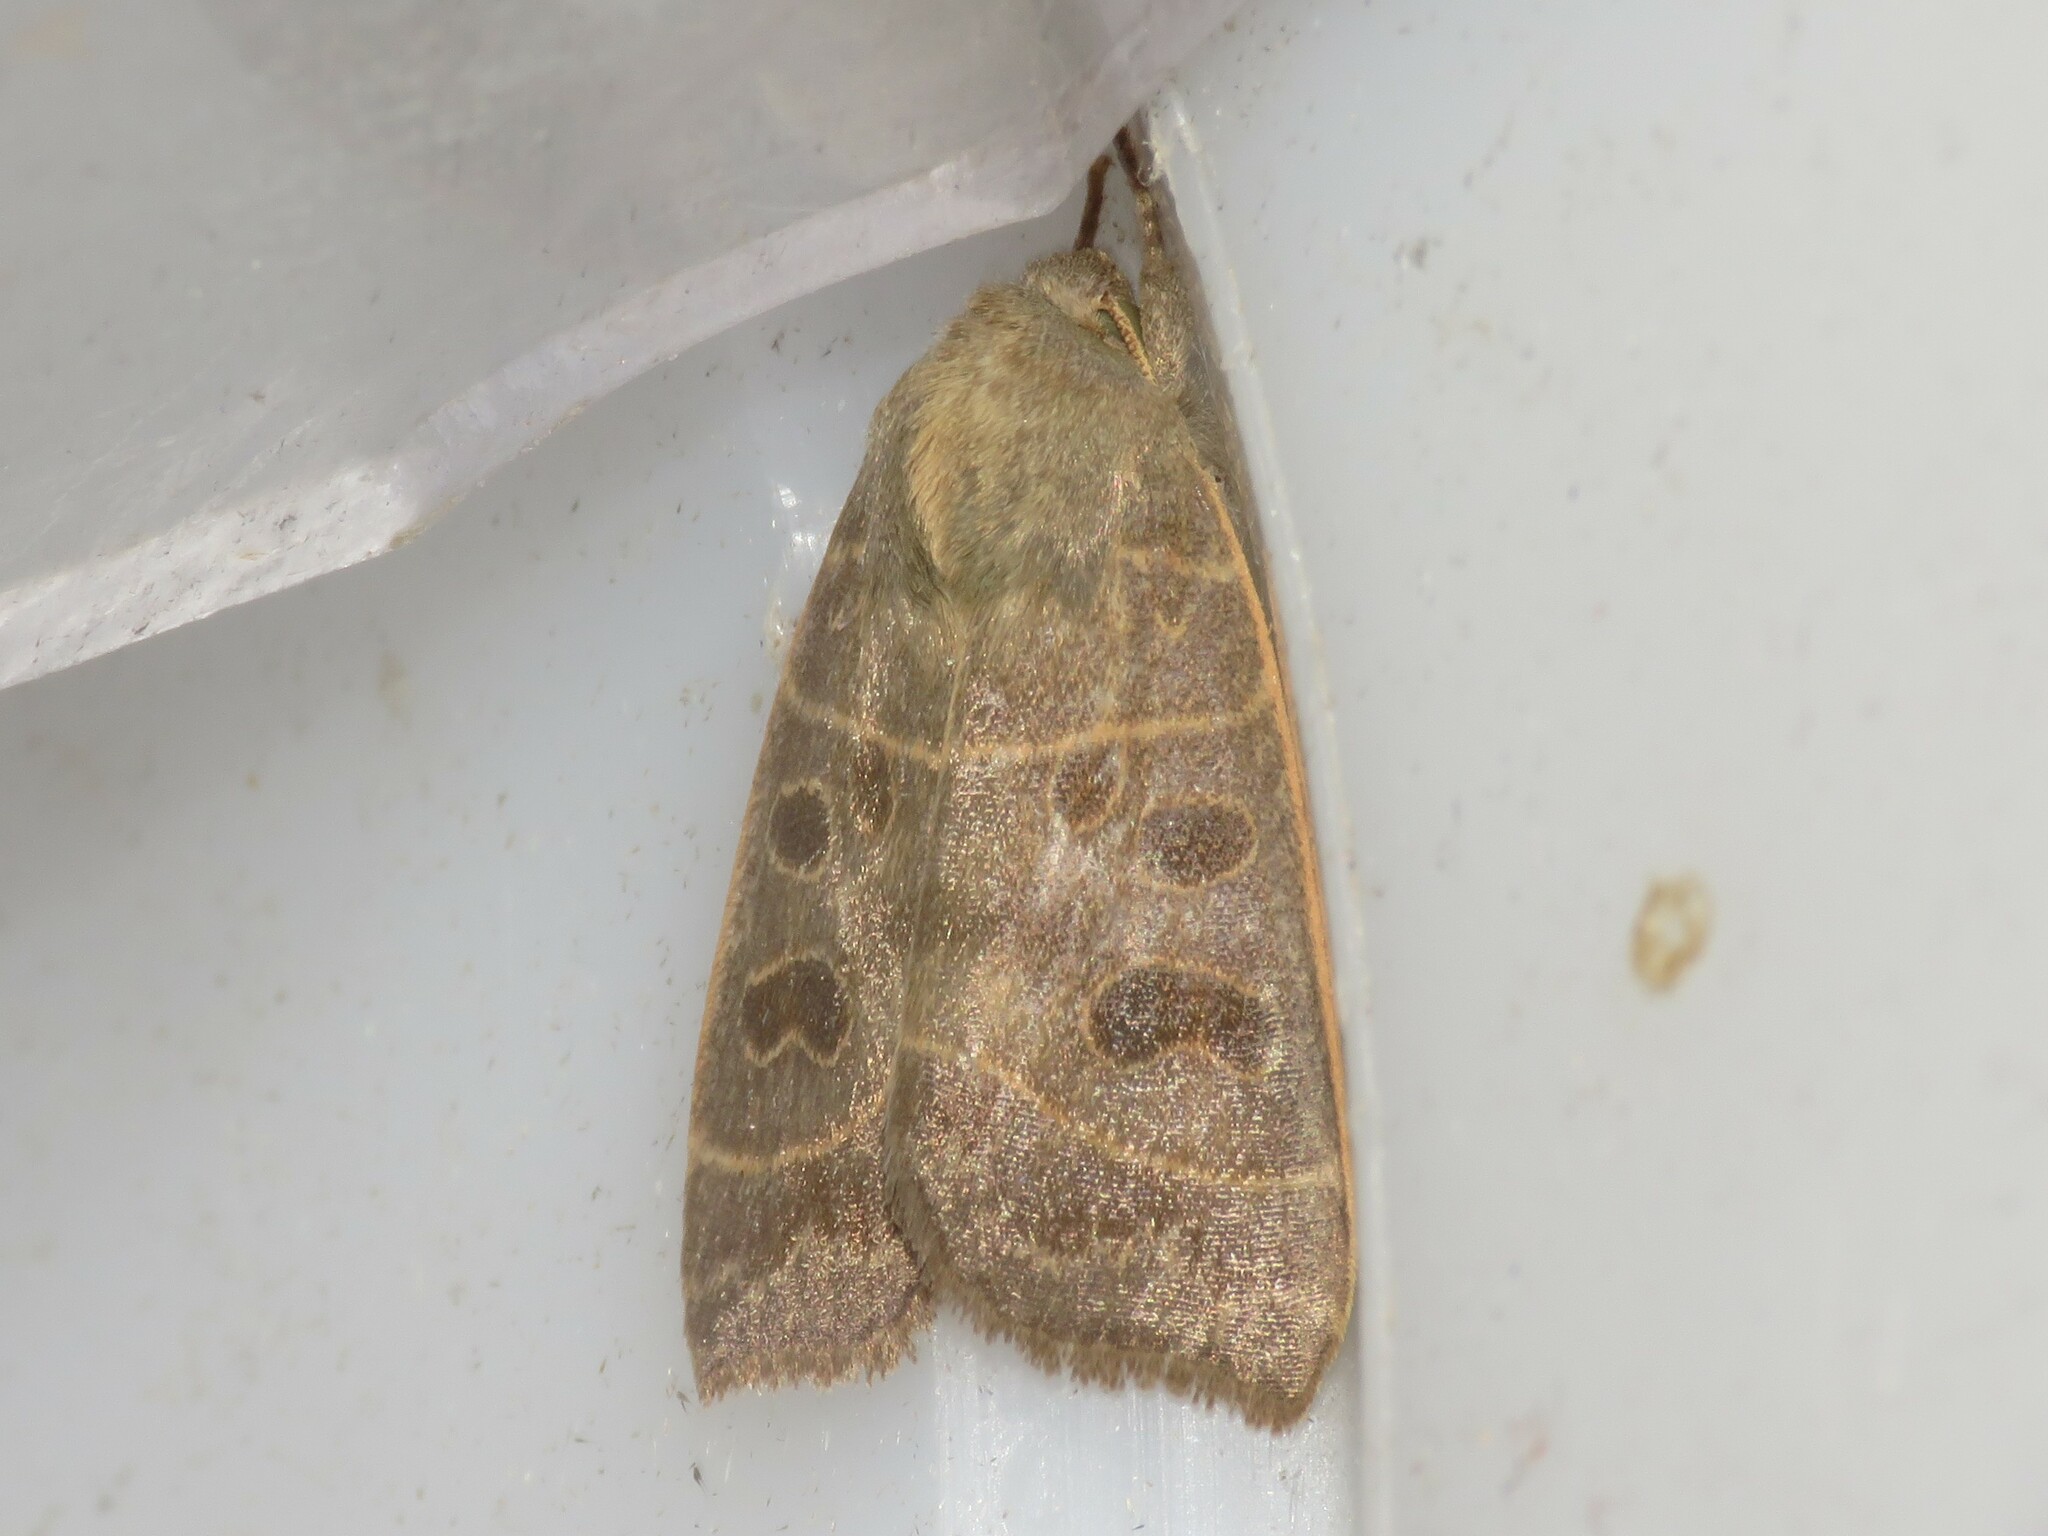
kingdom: Animalia
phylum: Arthropoda
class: Insecta
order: Lepidoptera
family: Noctuidae
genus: Ipimorpha
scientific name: Ipimorpha pleonectusa
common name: Even-lined sallow
